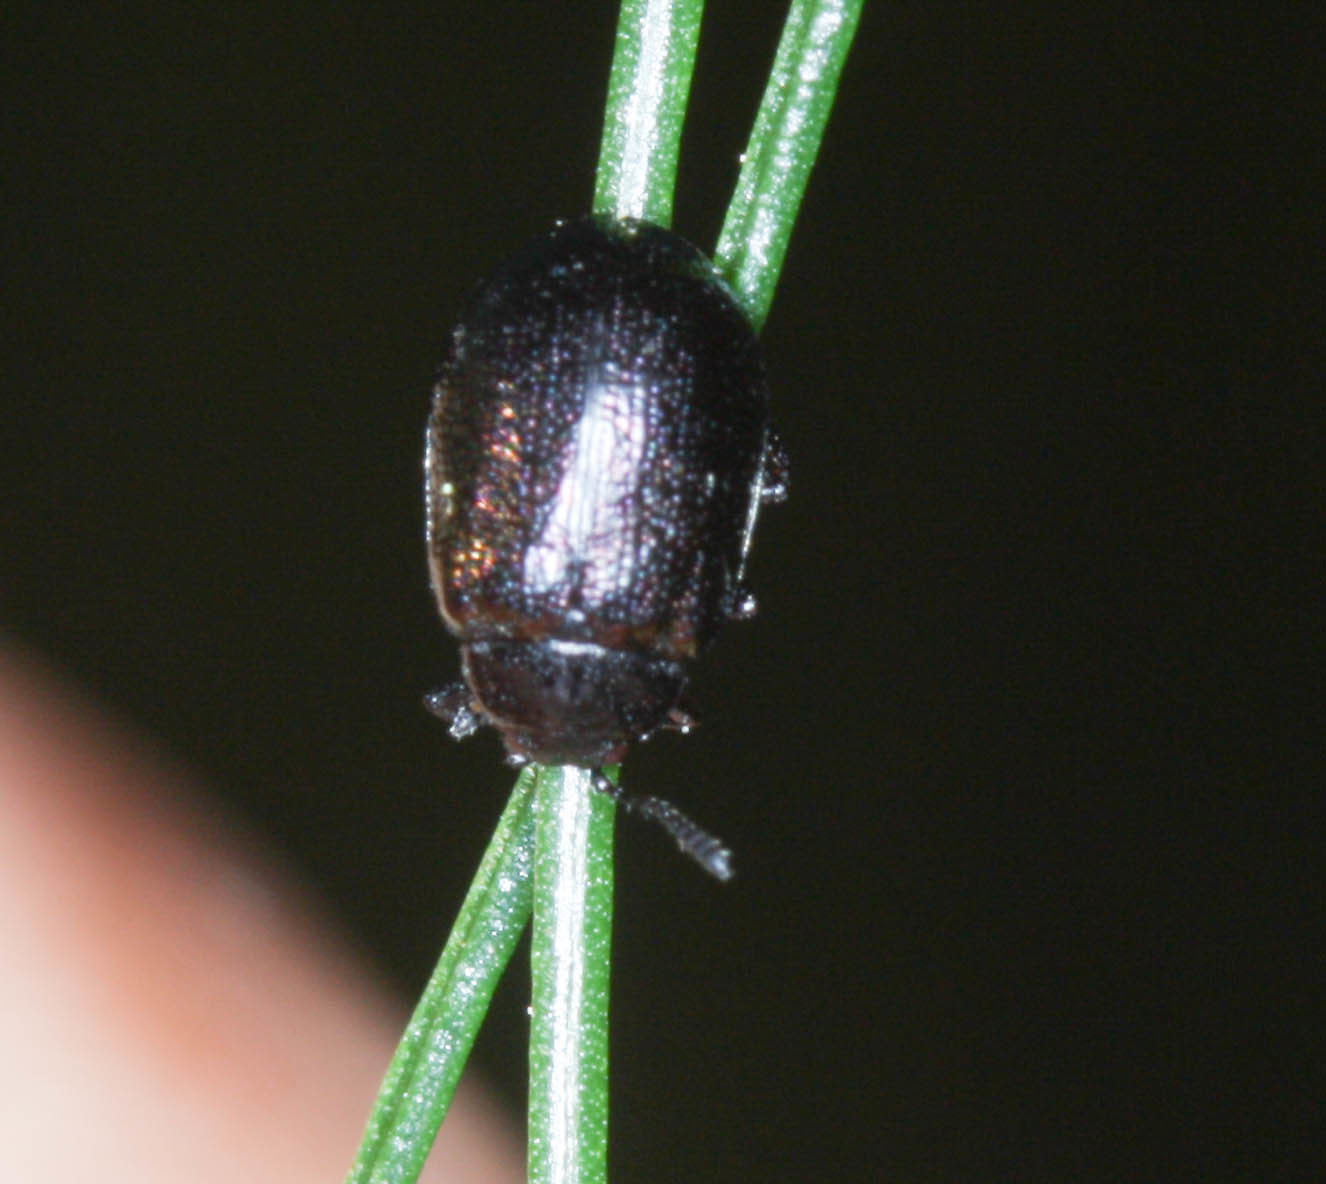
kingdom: Animalia
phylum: Arthropoda
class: Insecta
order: Coleoptera
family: Chrysomelidae
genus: Plagiodera
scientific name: Plagiodera californica
